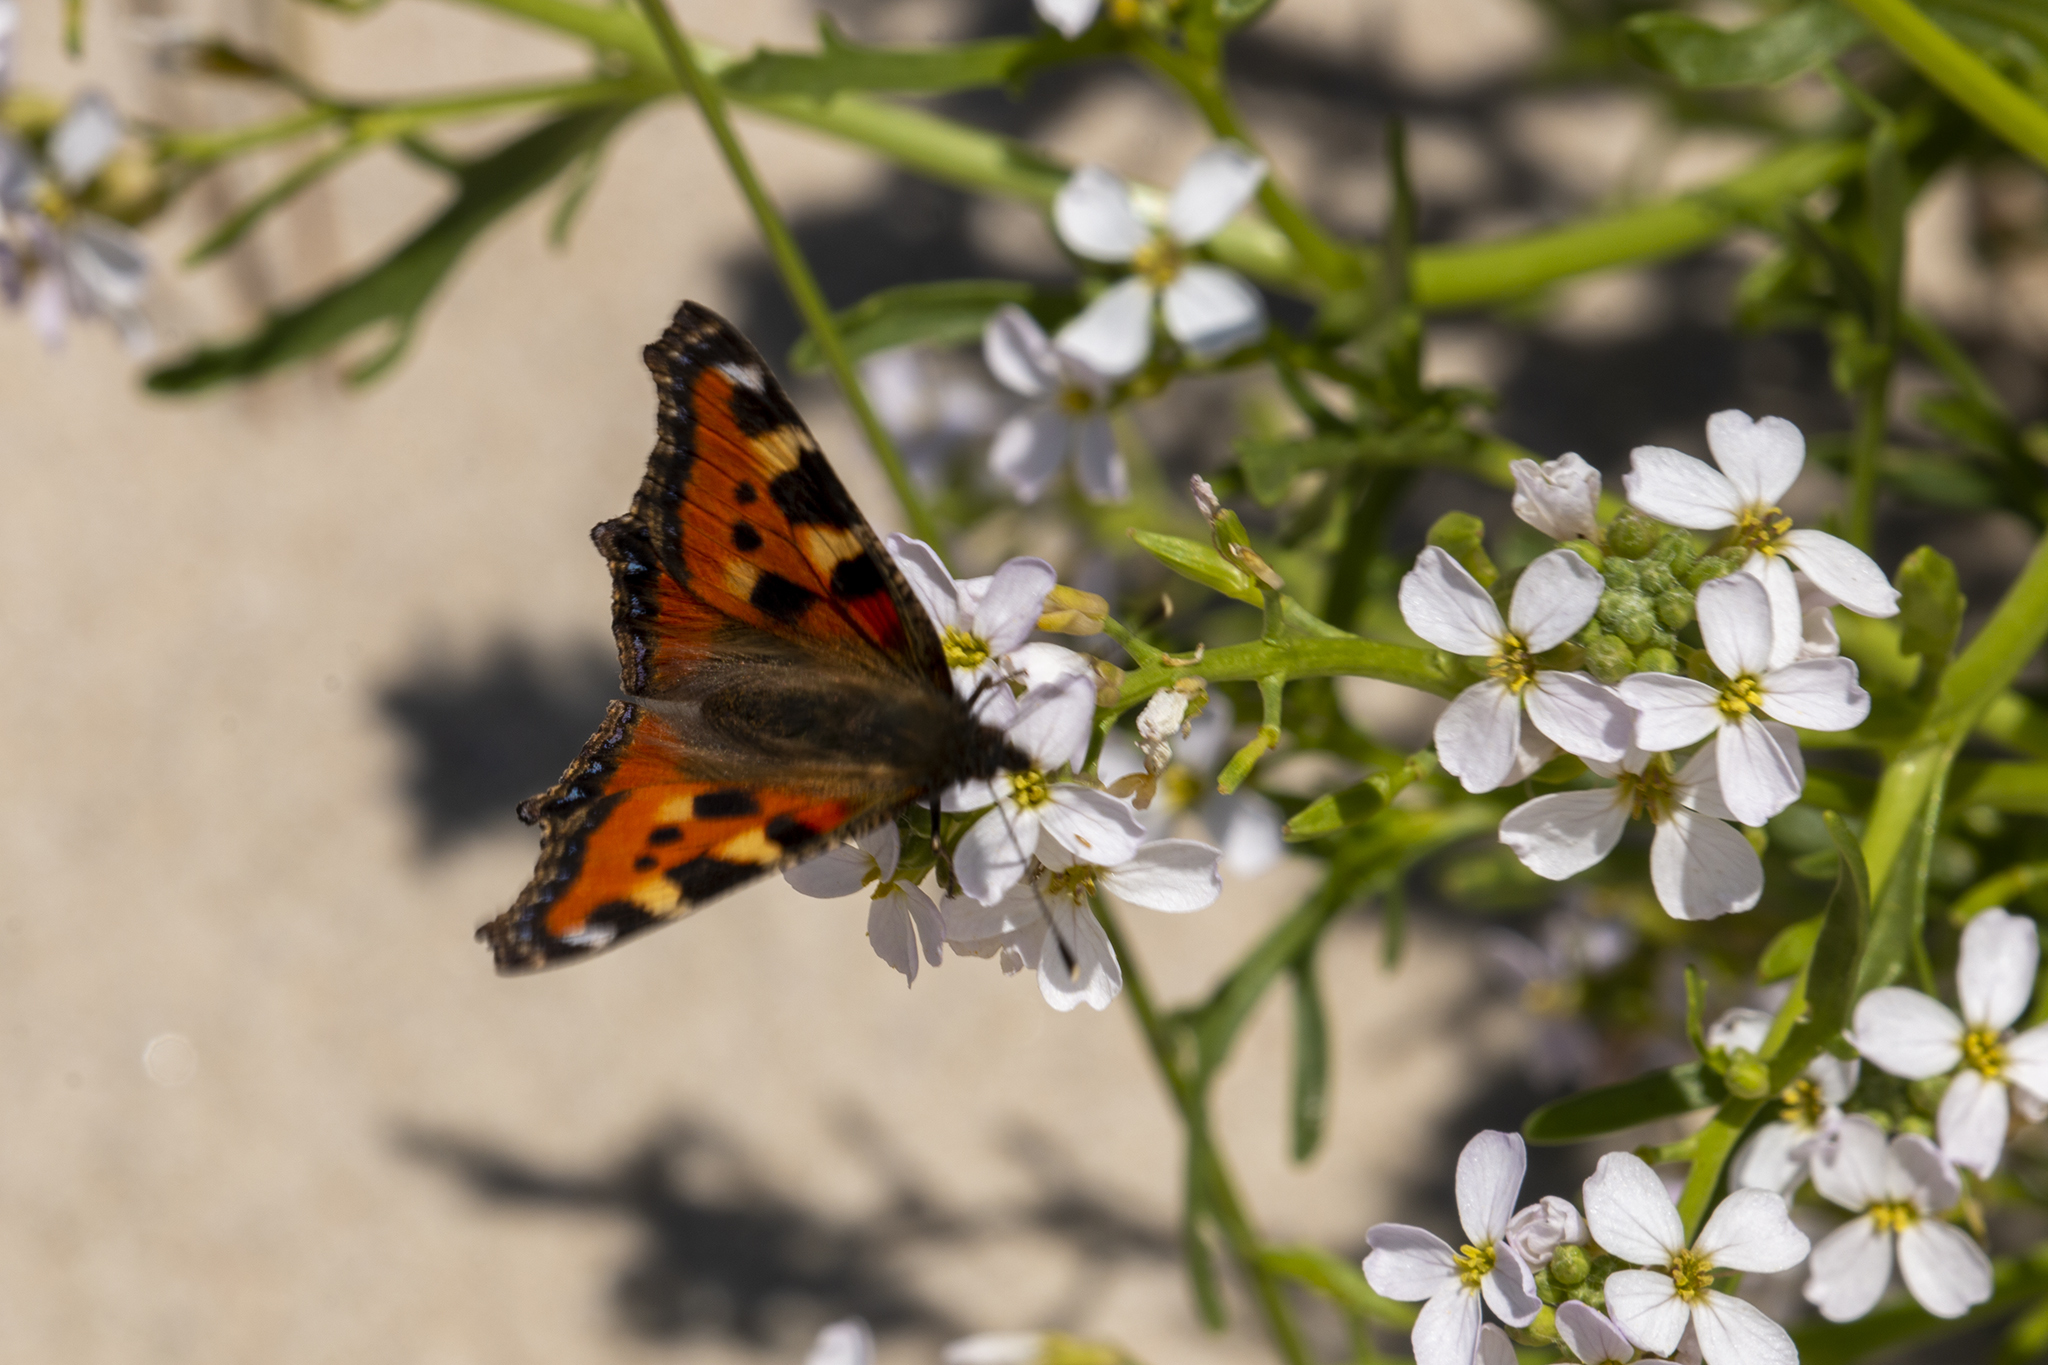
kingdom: Animalia
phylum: Arthropoda
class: Insecta
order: Lepidoptera
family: Nymphalidae
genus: Aglais
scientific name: Aglais urticae
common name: Small tortoiseshell
